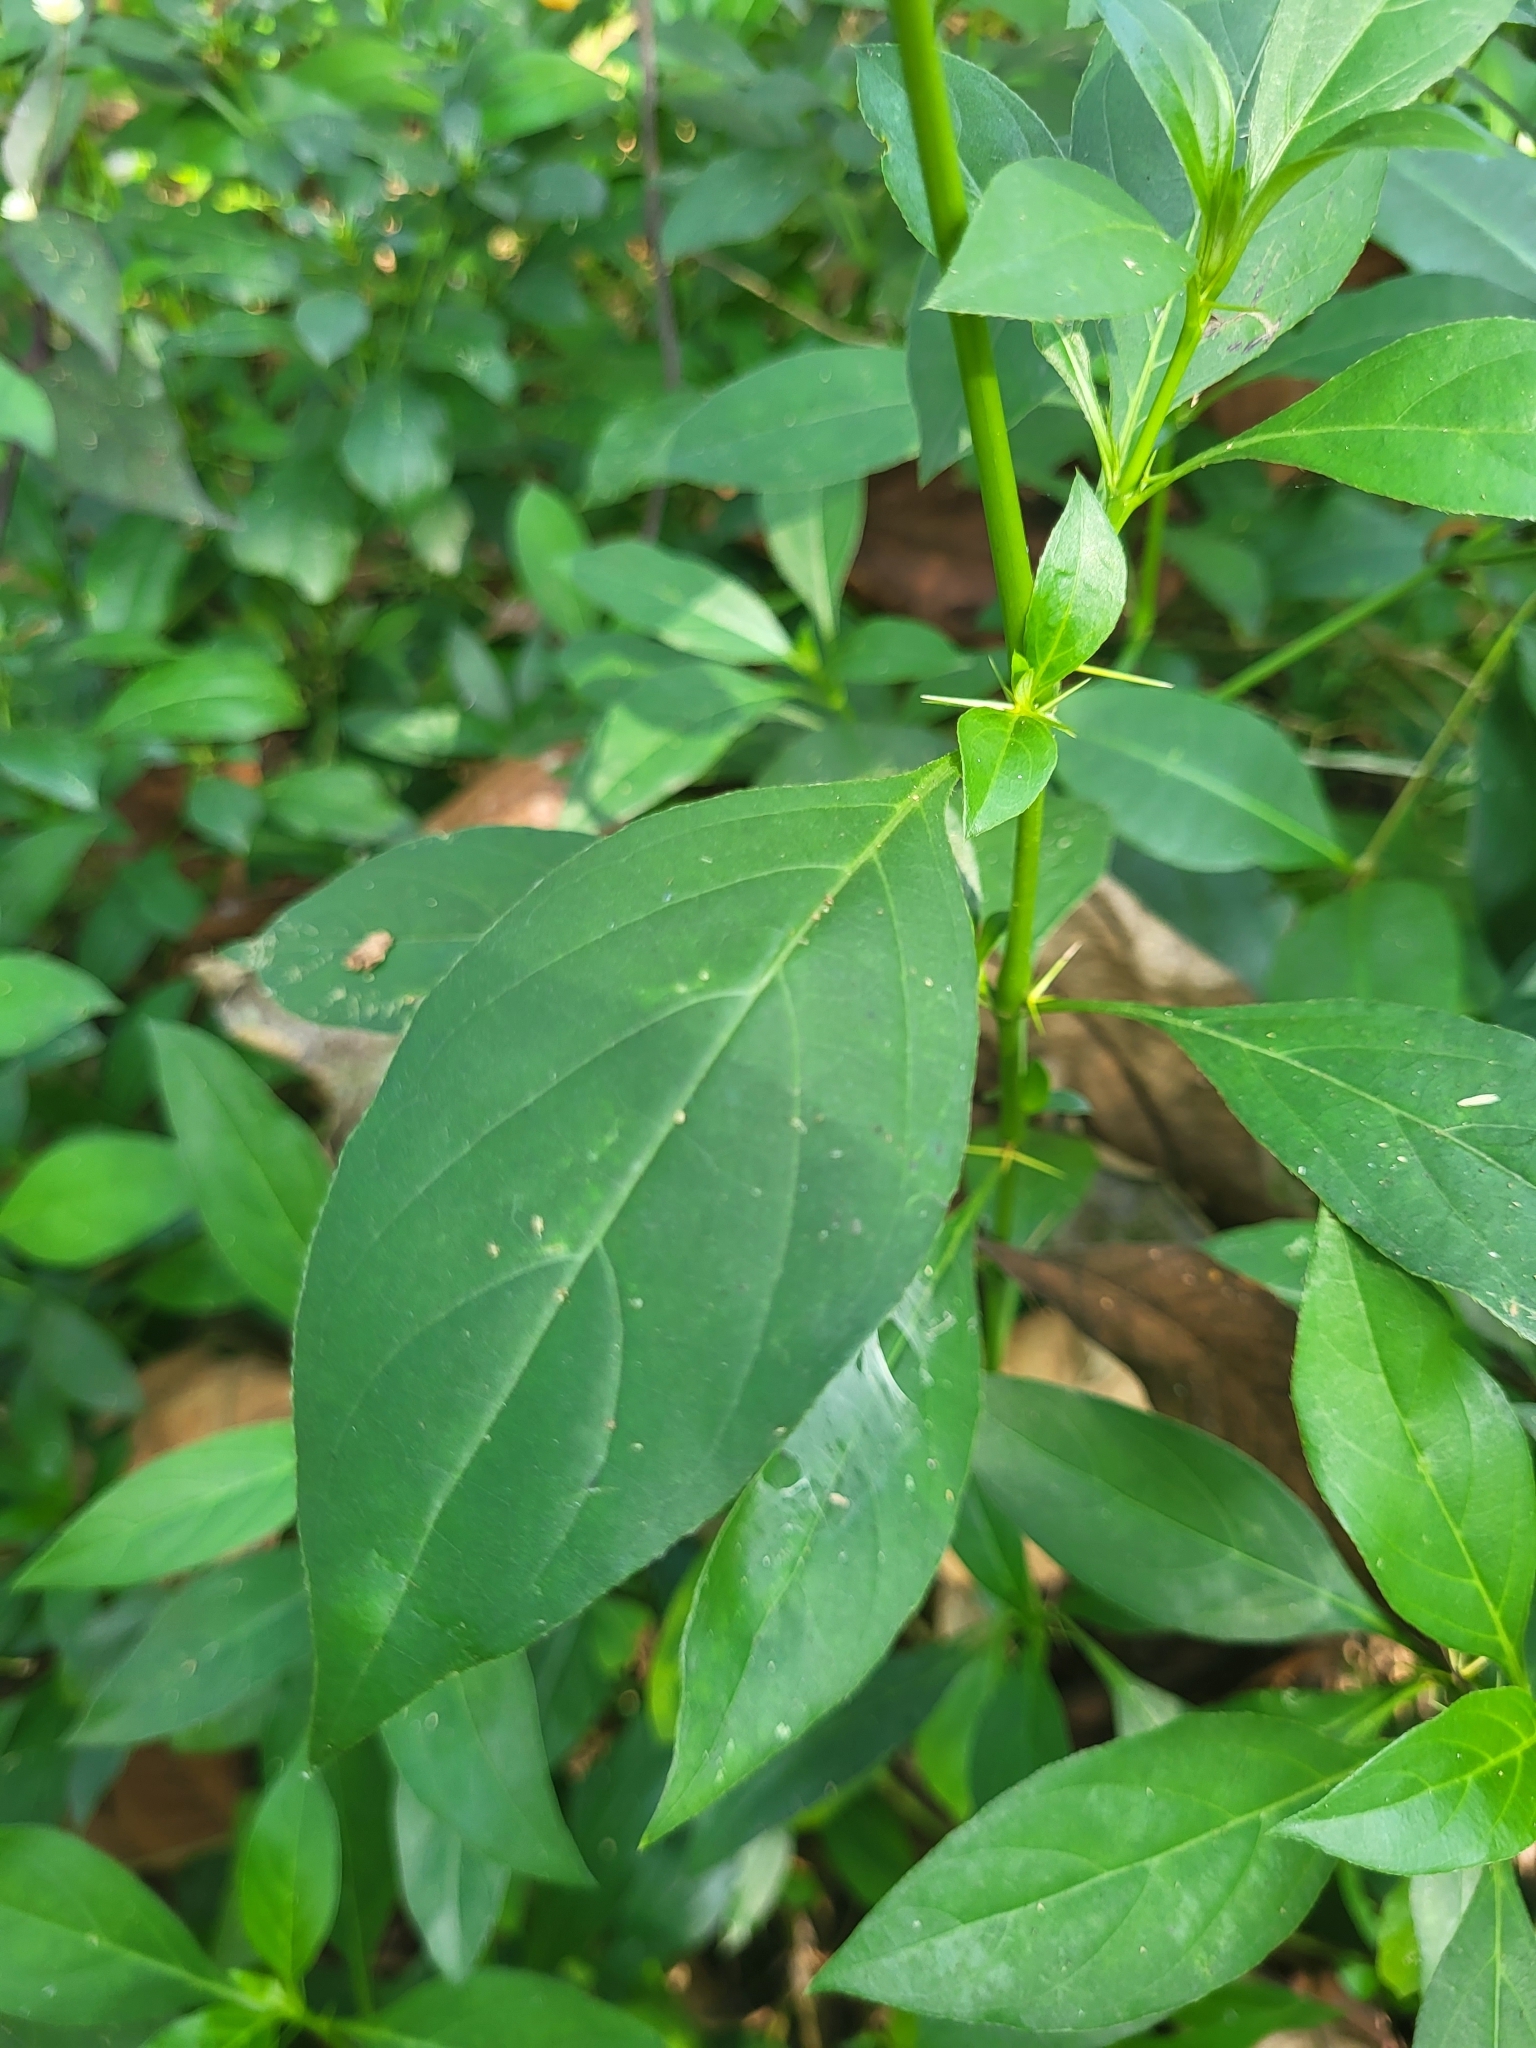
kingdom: Plantae
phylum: Tracheophyta
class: Magnoliopsida
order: Lamiales
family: Acanthaceae
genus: Barleria
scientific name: Barleria prionitis
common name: Barleria
